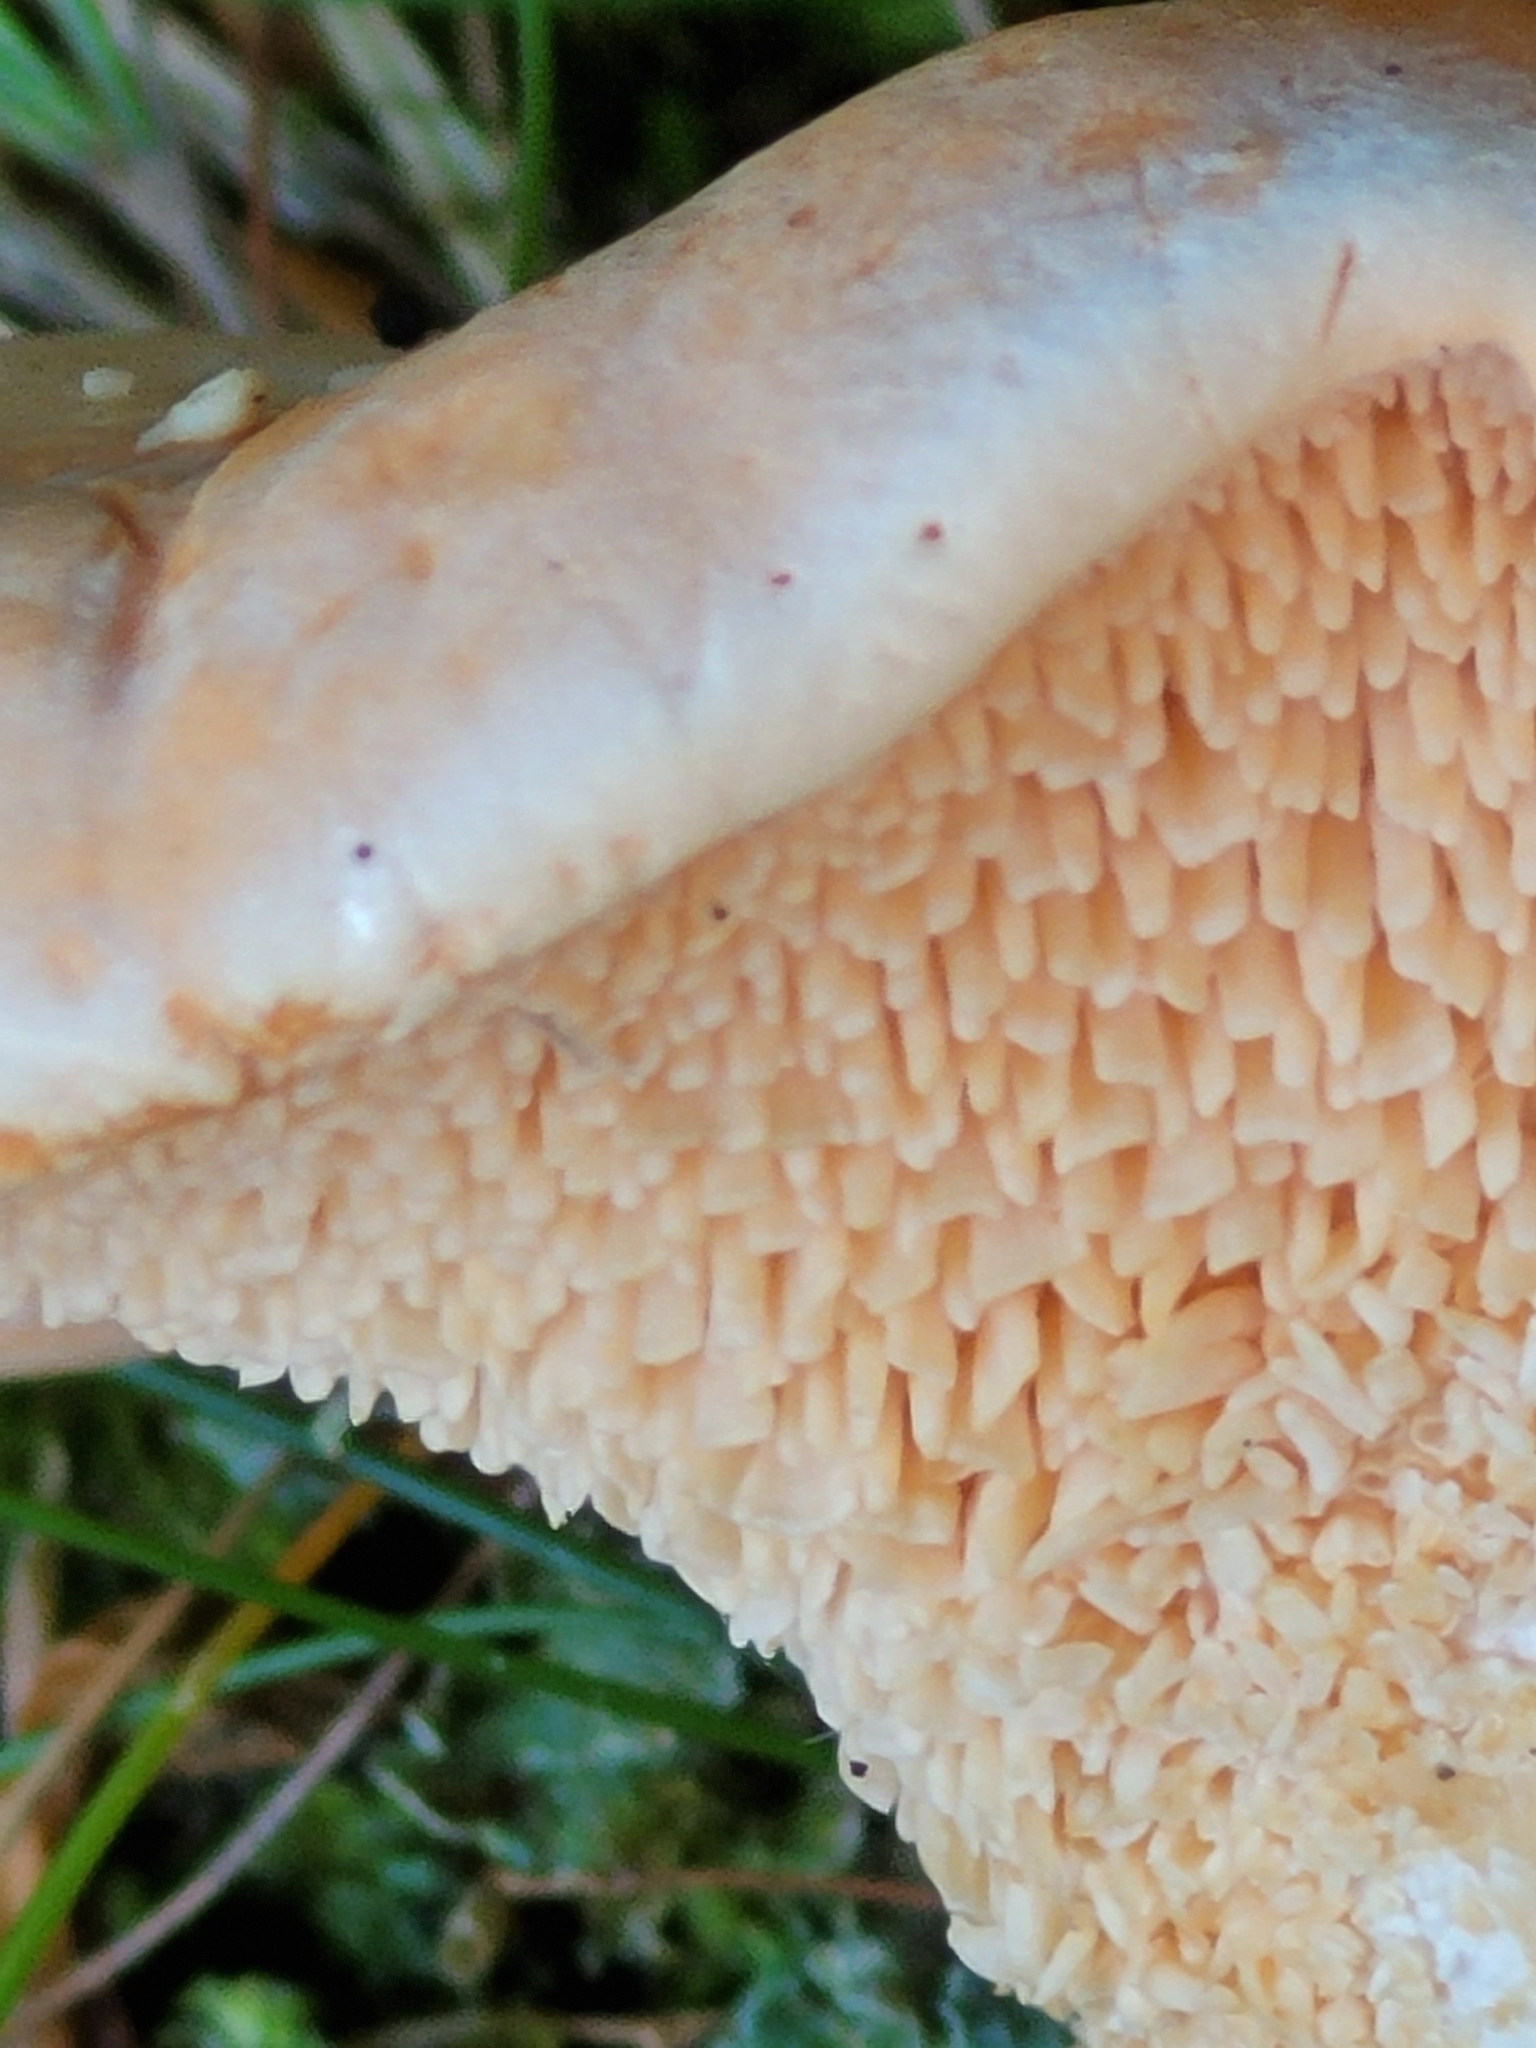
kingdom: Fungi
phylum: Basidiomycota
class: Agaricomycetes
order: Cantharellales
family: Hydnaceae
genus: Hydnum
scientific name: Hydnum repandum
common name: Wood hedgehog
